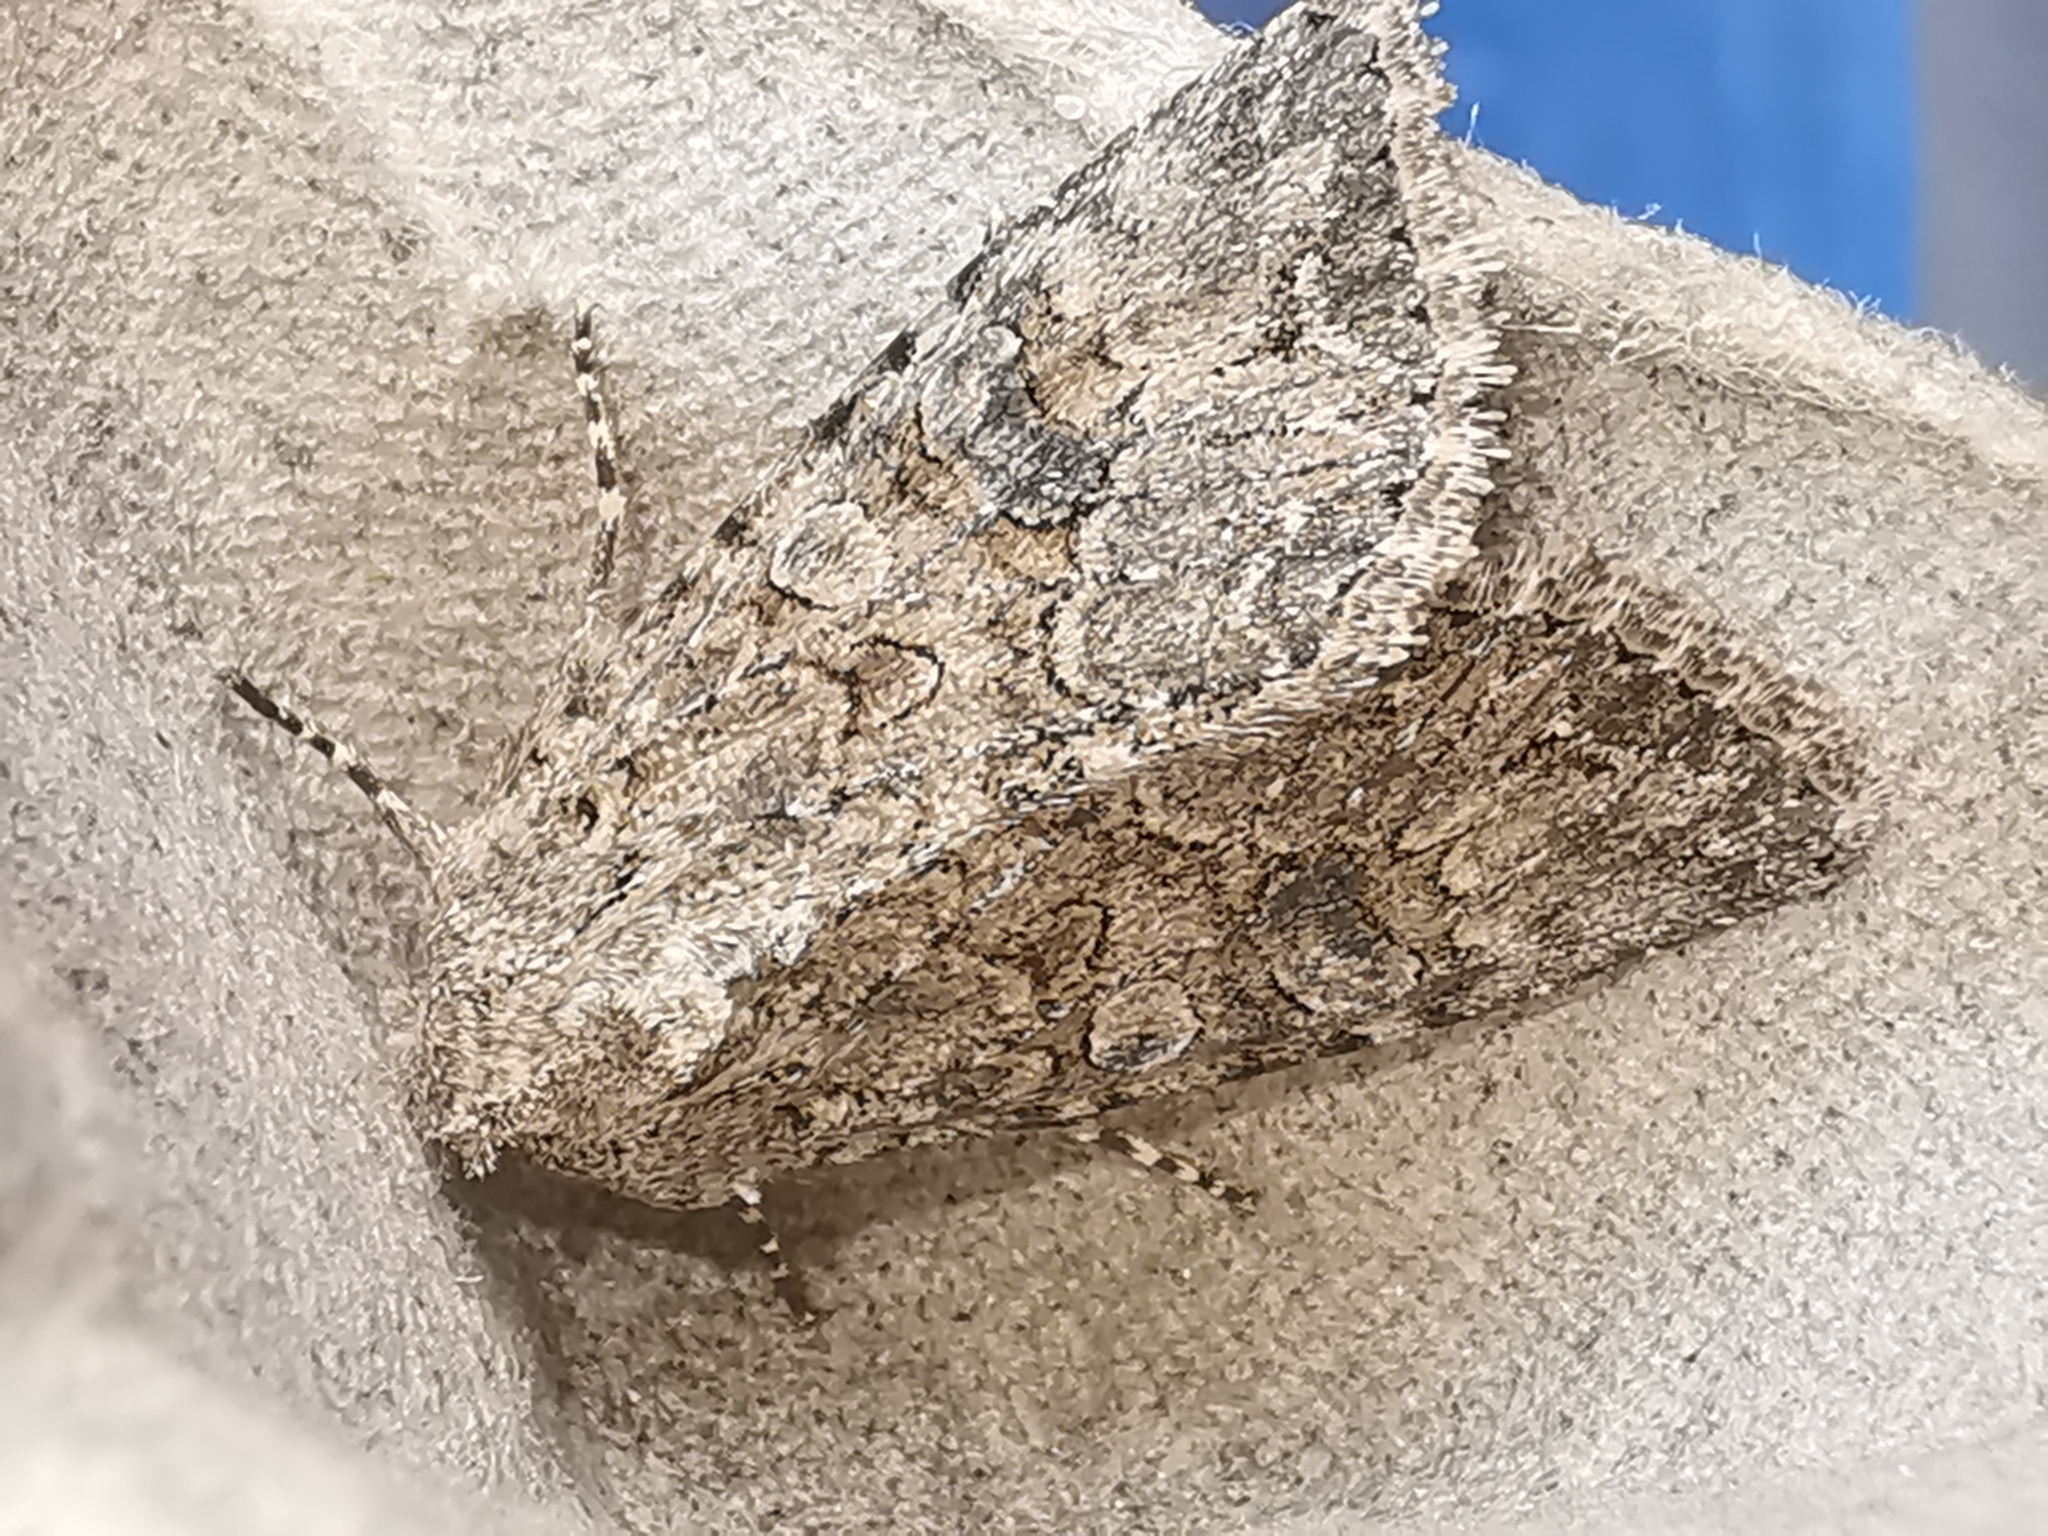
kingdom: Animalia
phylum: Arthropoda
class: Insecta
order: Lepidoptera
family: Noctuidae
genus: Anarta
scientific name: Anarta trifolii
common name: Clover cutworm moth
